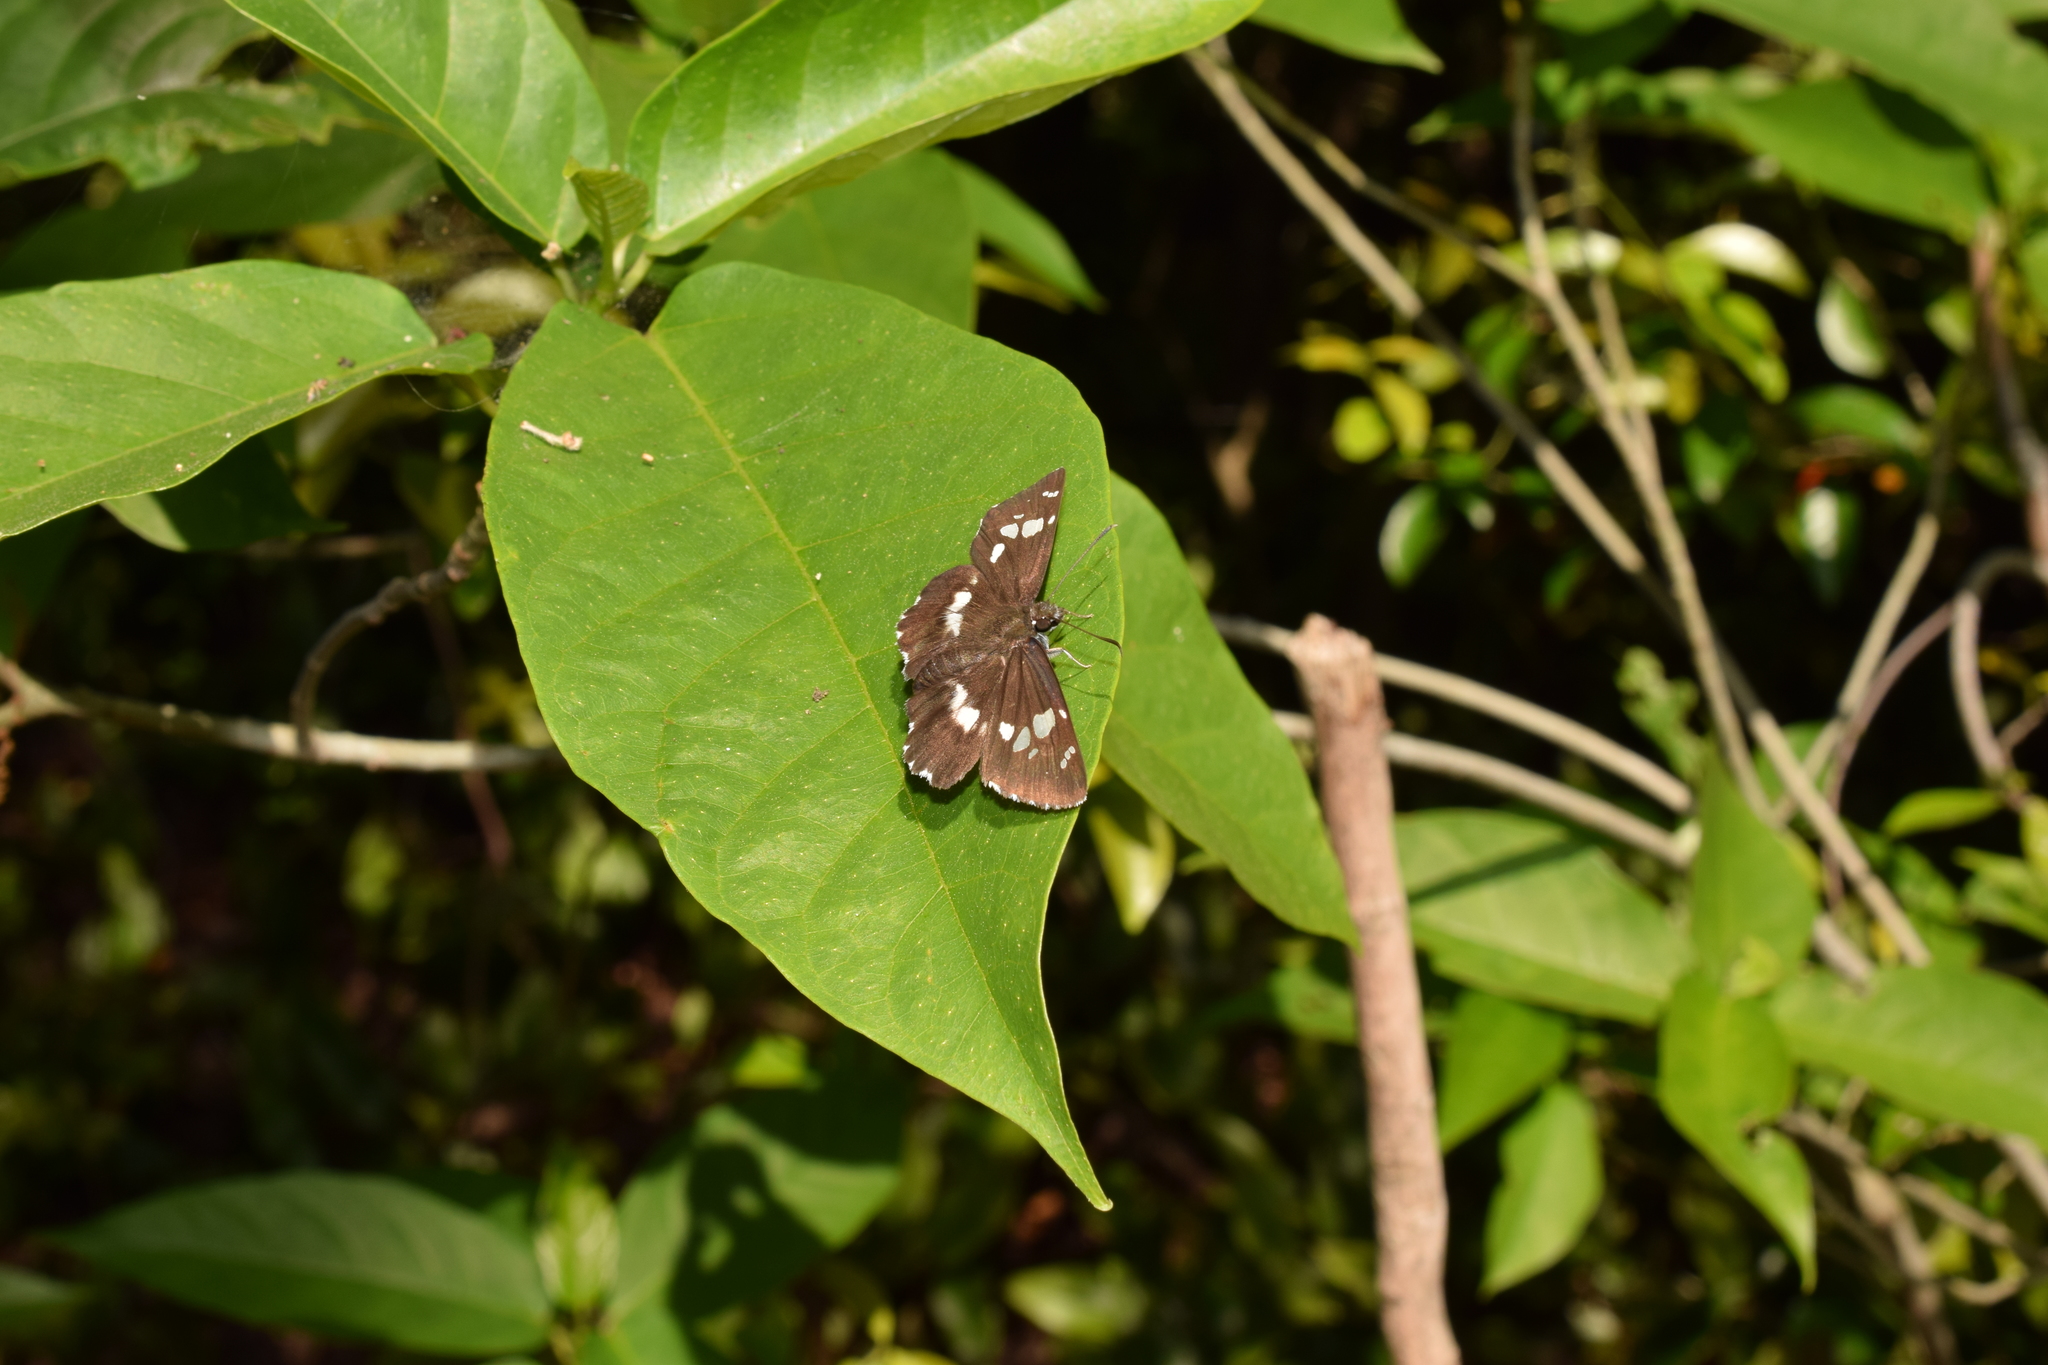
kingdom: Animalia
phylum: Arthropoda
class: Insecta
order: Lepidoptera
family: Hesperiidae
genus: Daimio
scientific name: Daimio tethys
